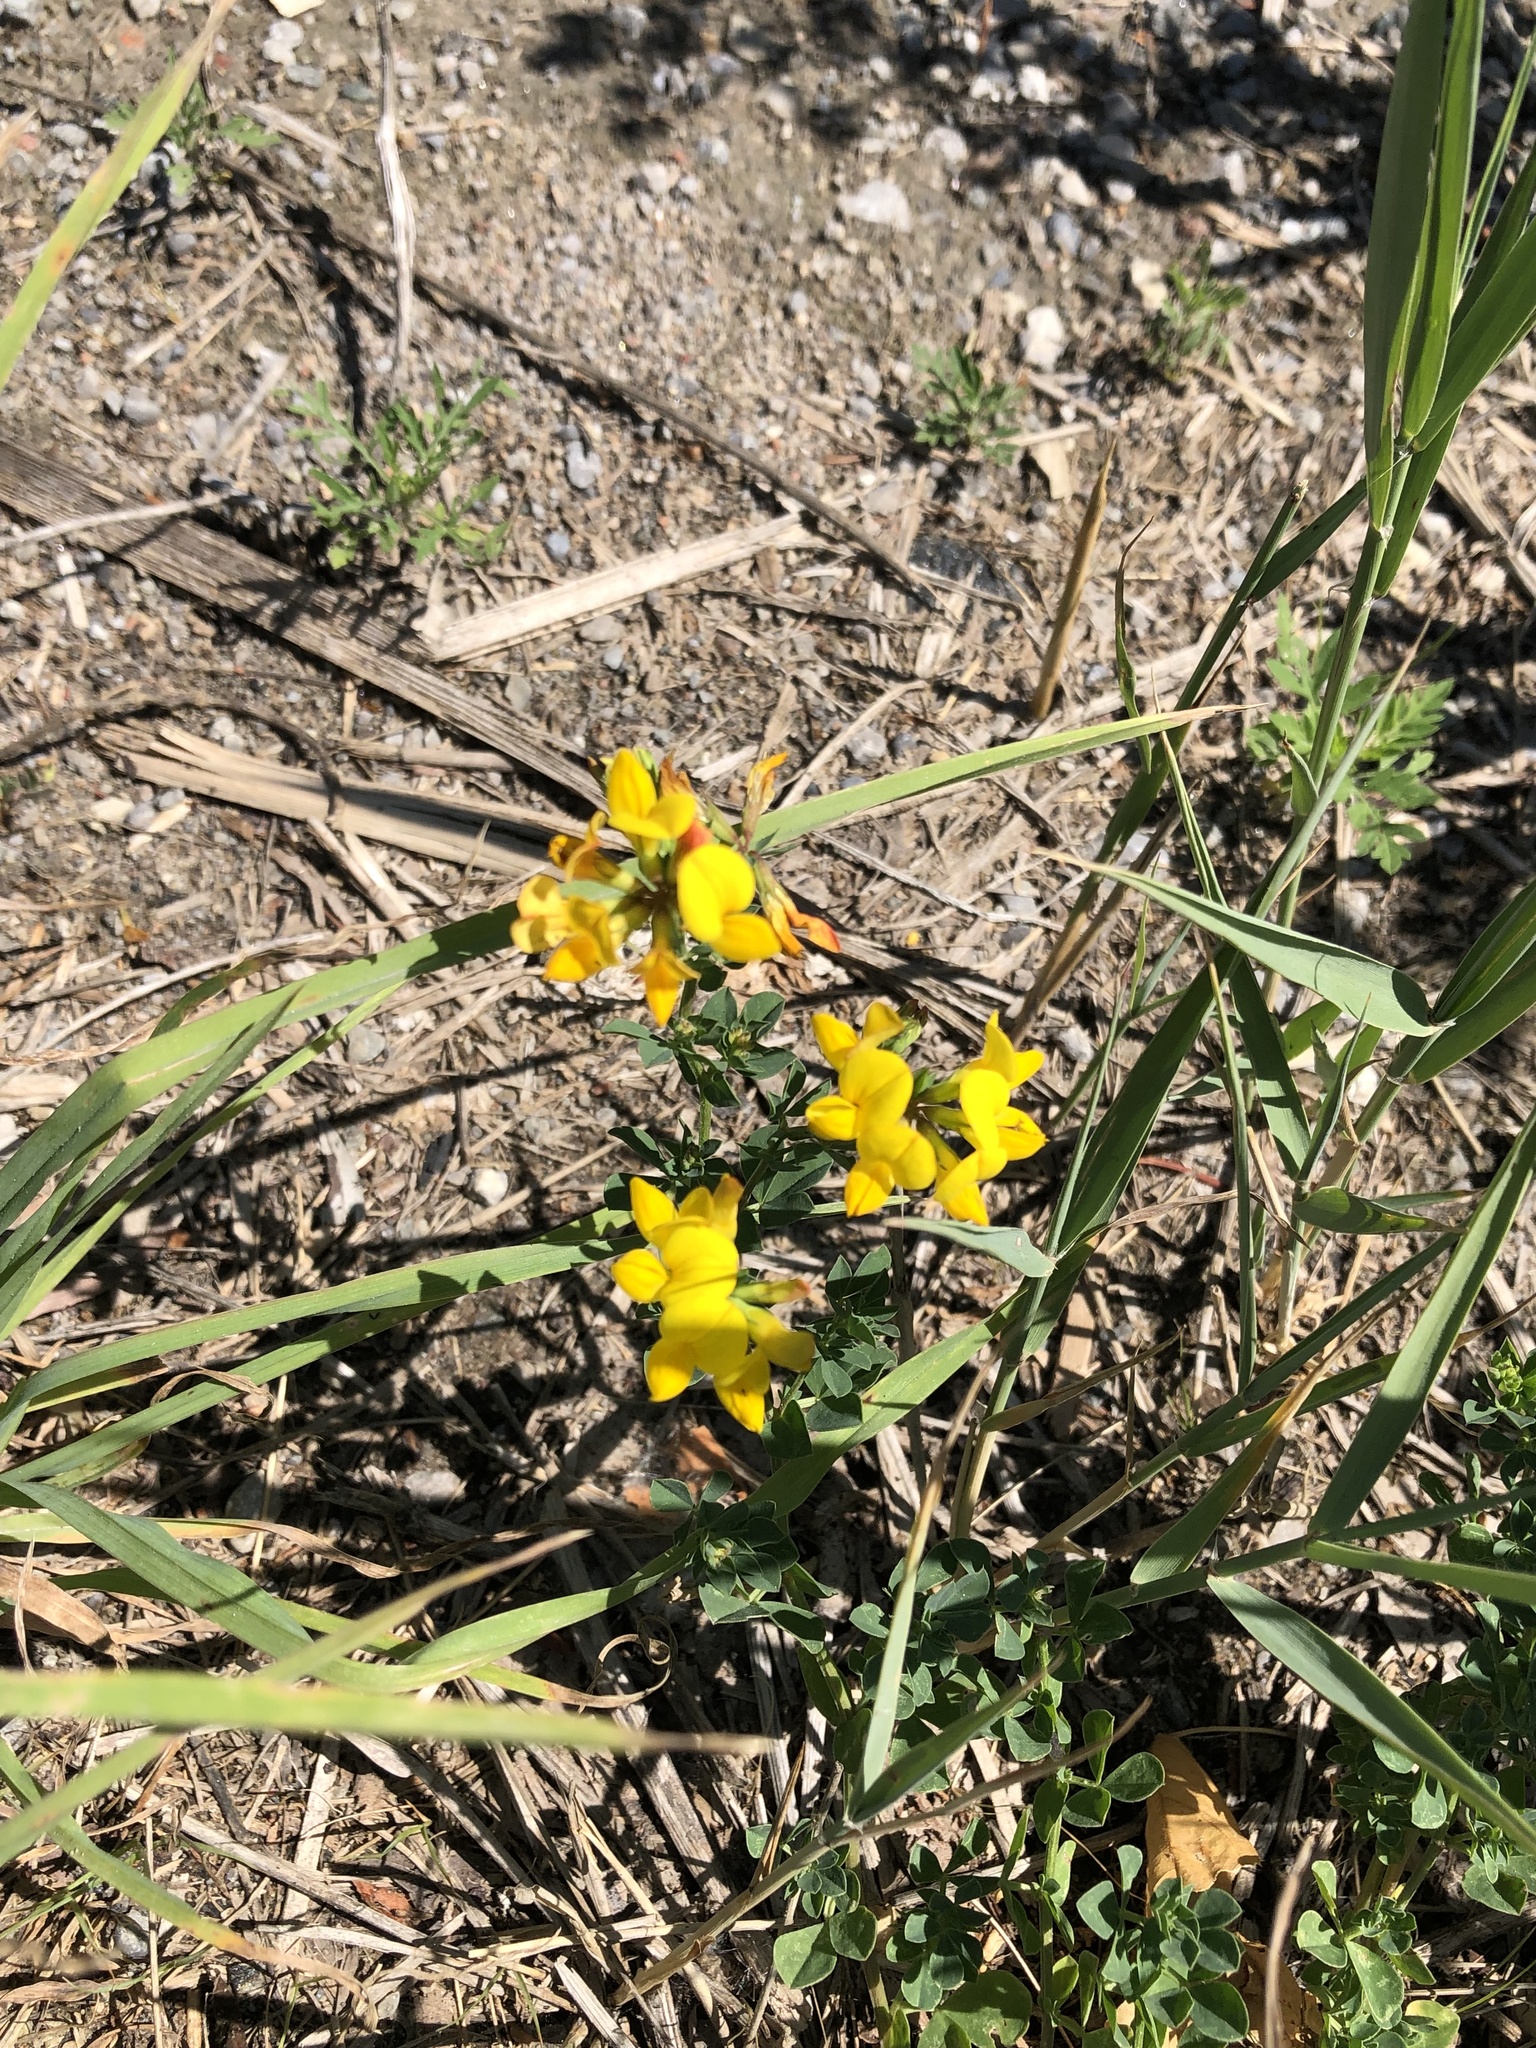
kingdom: Plantae
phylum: Tracheophyta
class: Magnoliopsida
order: Fabales
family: Fabaceae
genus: Lotus
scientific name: Lotus corniculatus
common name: Common bird's-foot-trefoil
